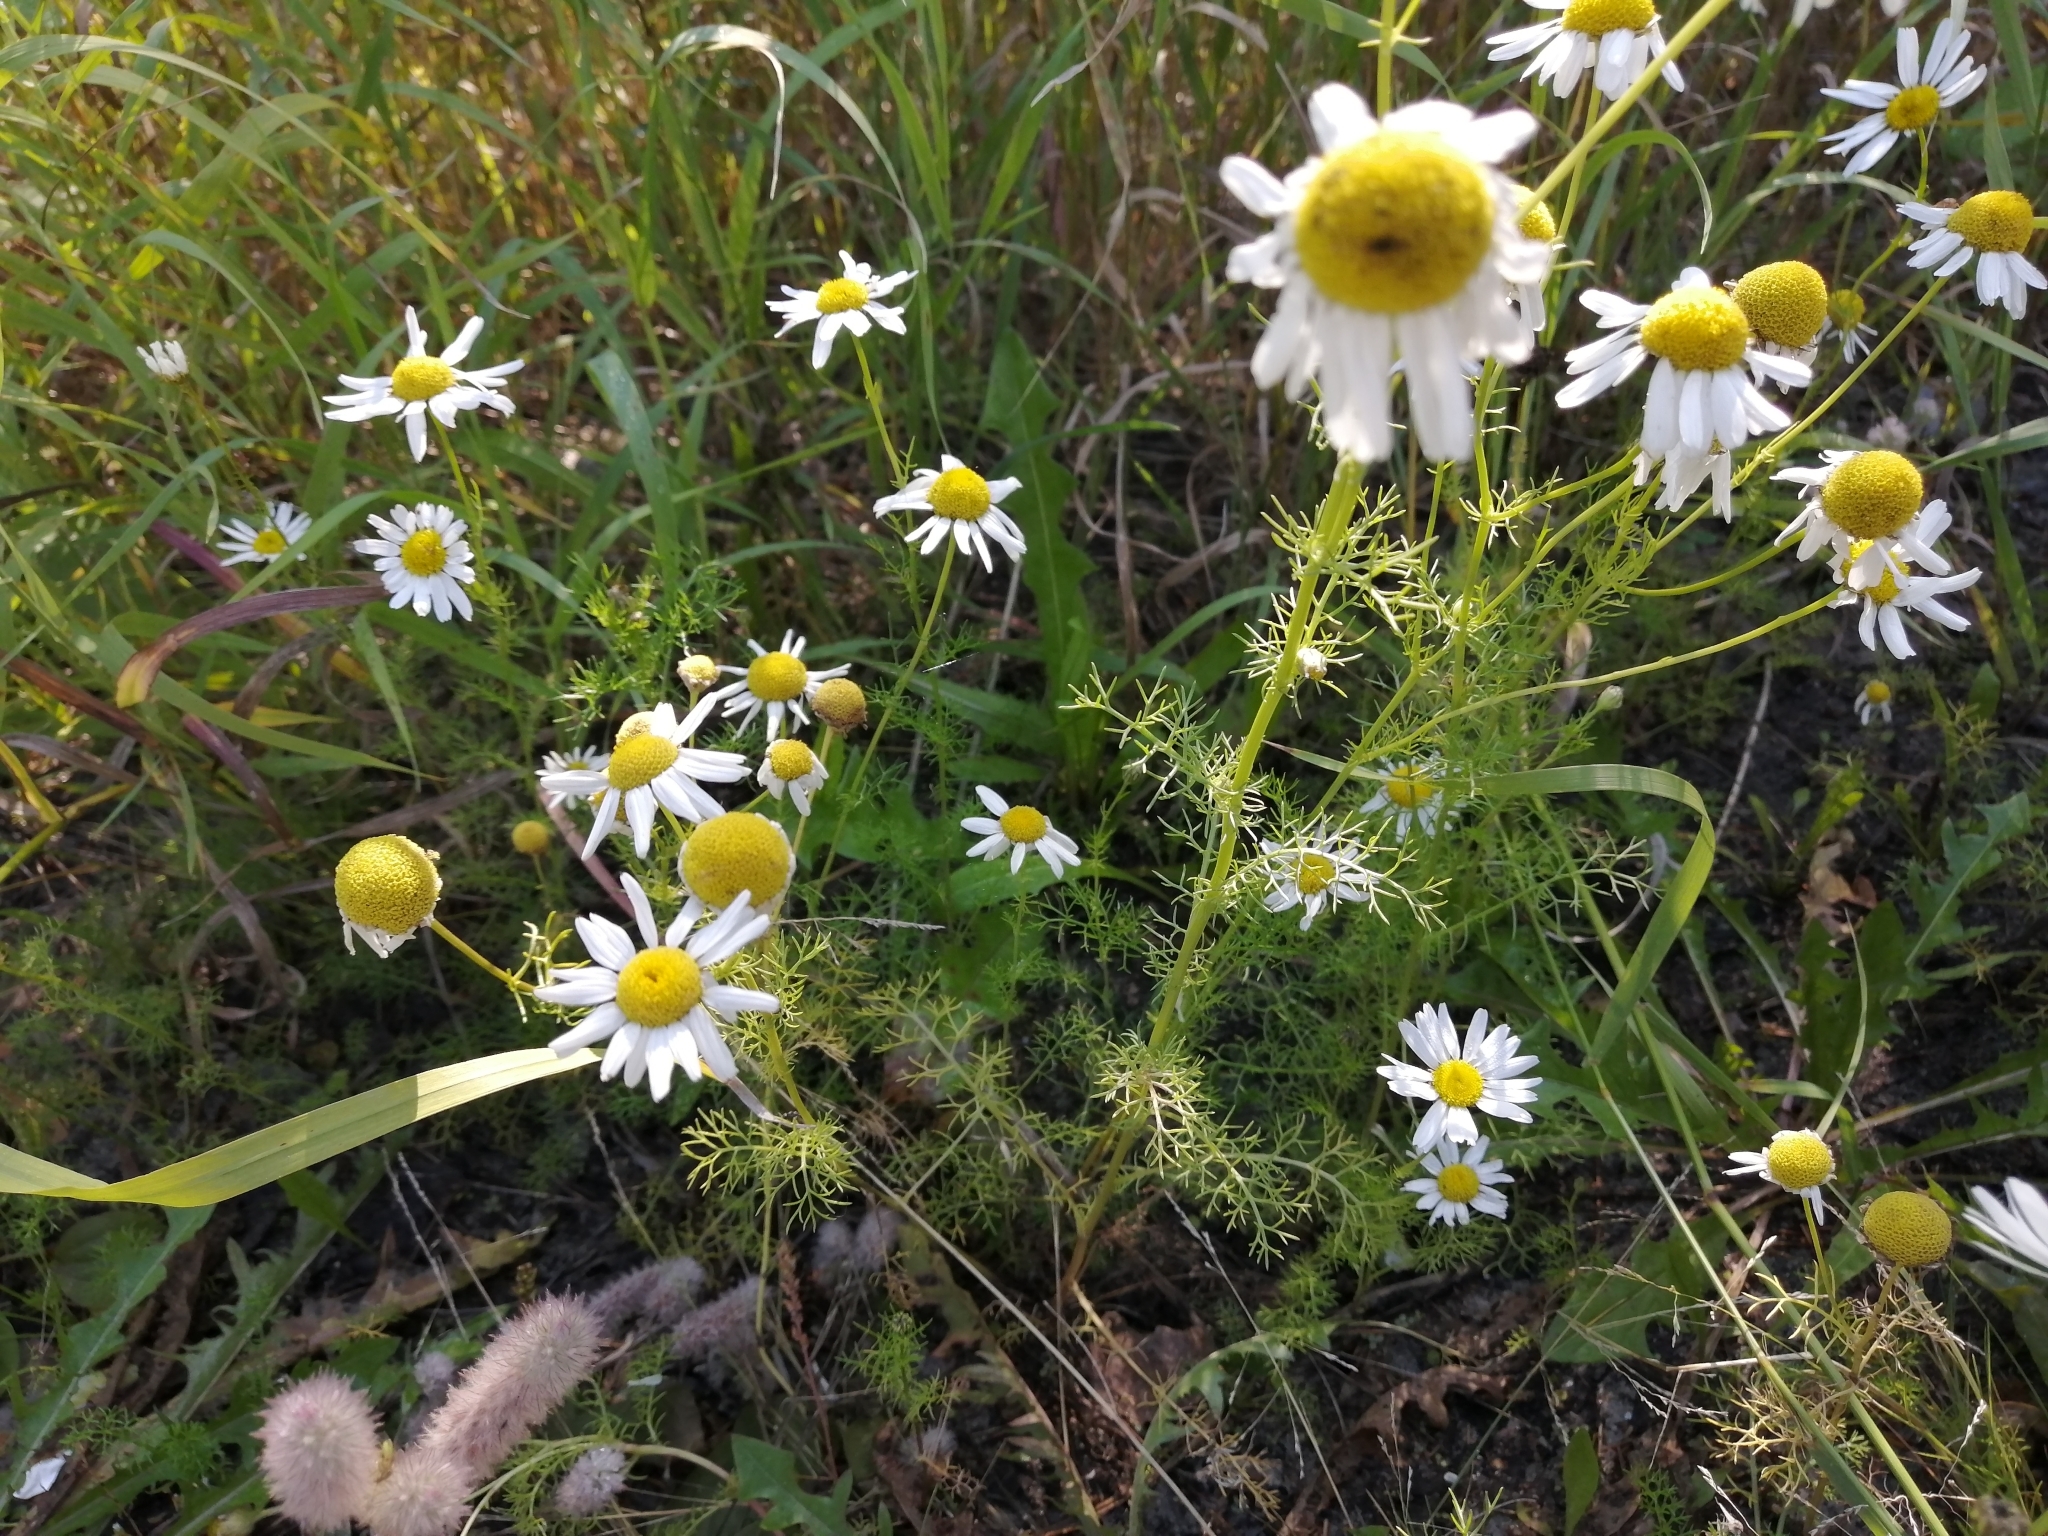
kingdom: Plantae
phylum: Tracheophyta
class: Magnoliopsida
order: Asterales
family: Asteraceae
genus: Tripleurospermum
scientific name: Tripleurospermum inodorum
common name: Scentless mayweed
